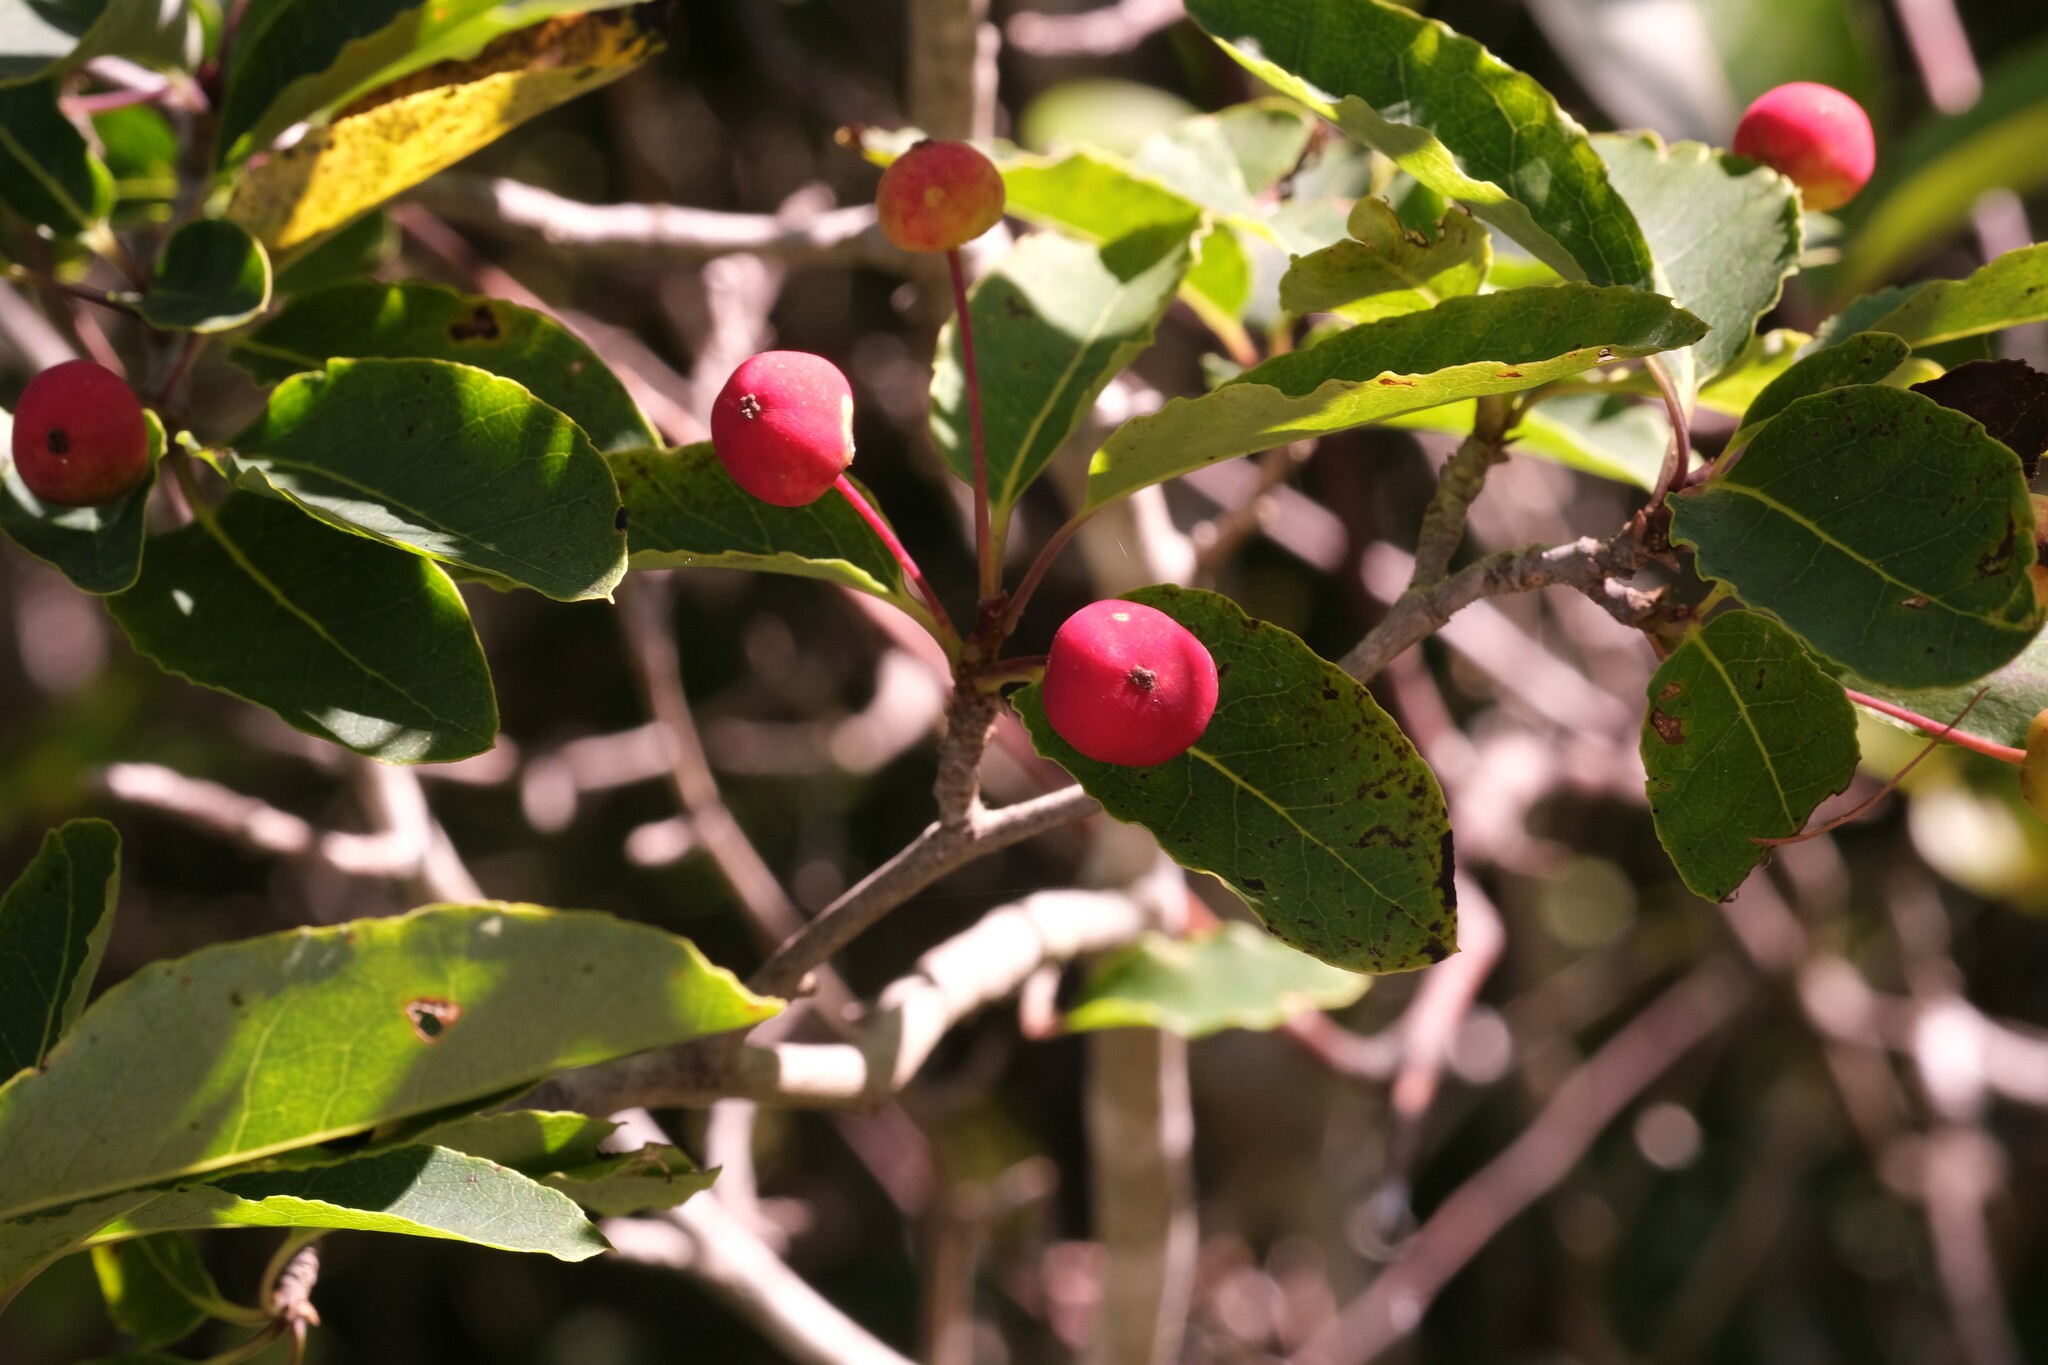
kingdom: Plantae
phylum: Tracheophyta
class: Magnoliopsida
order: Aquifoliales
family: Aquifoliaceae
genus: Ilex
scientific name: Ilex mucronata
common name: Catberry
